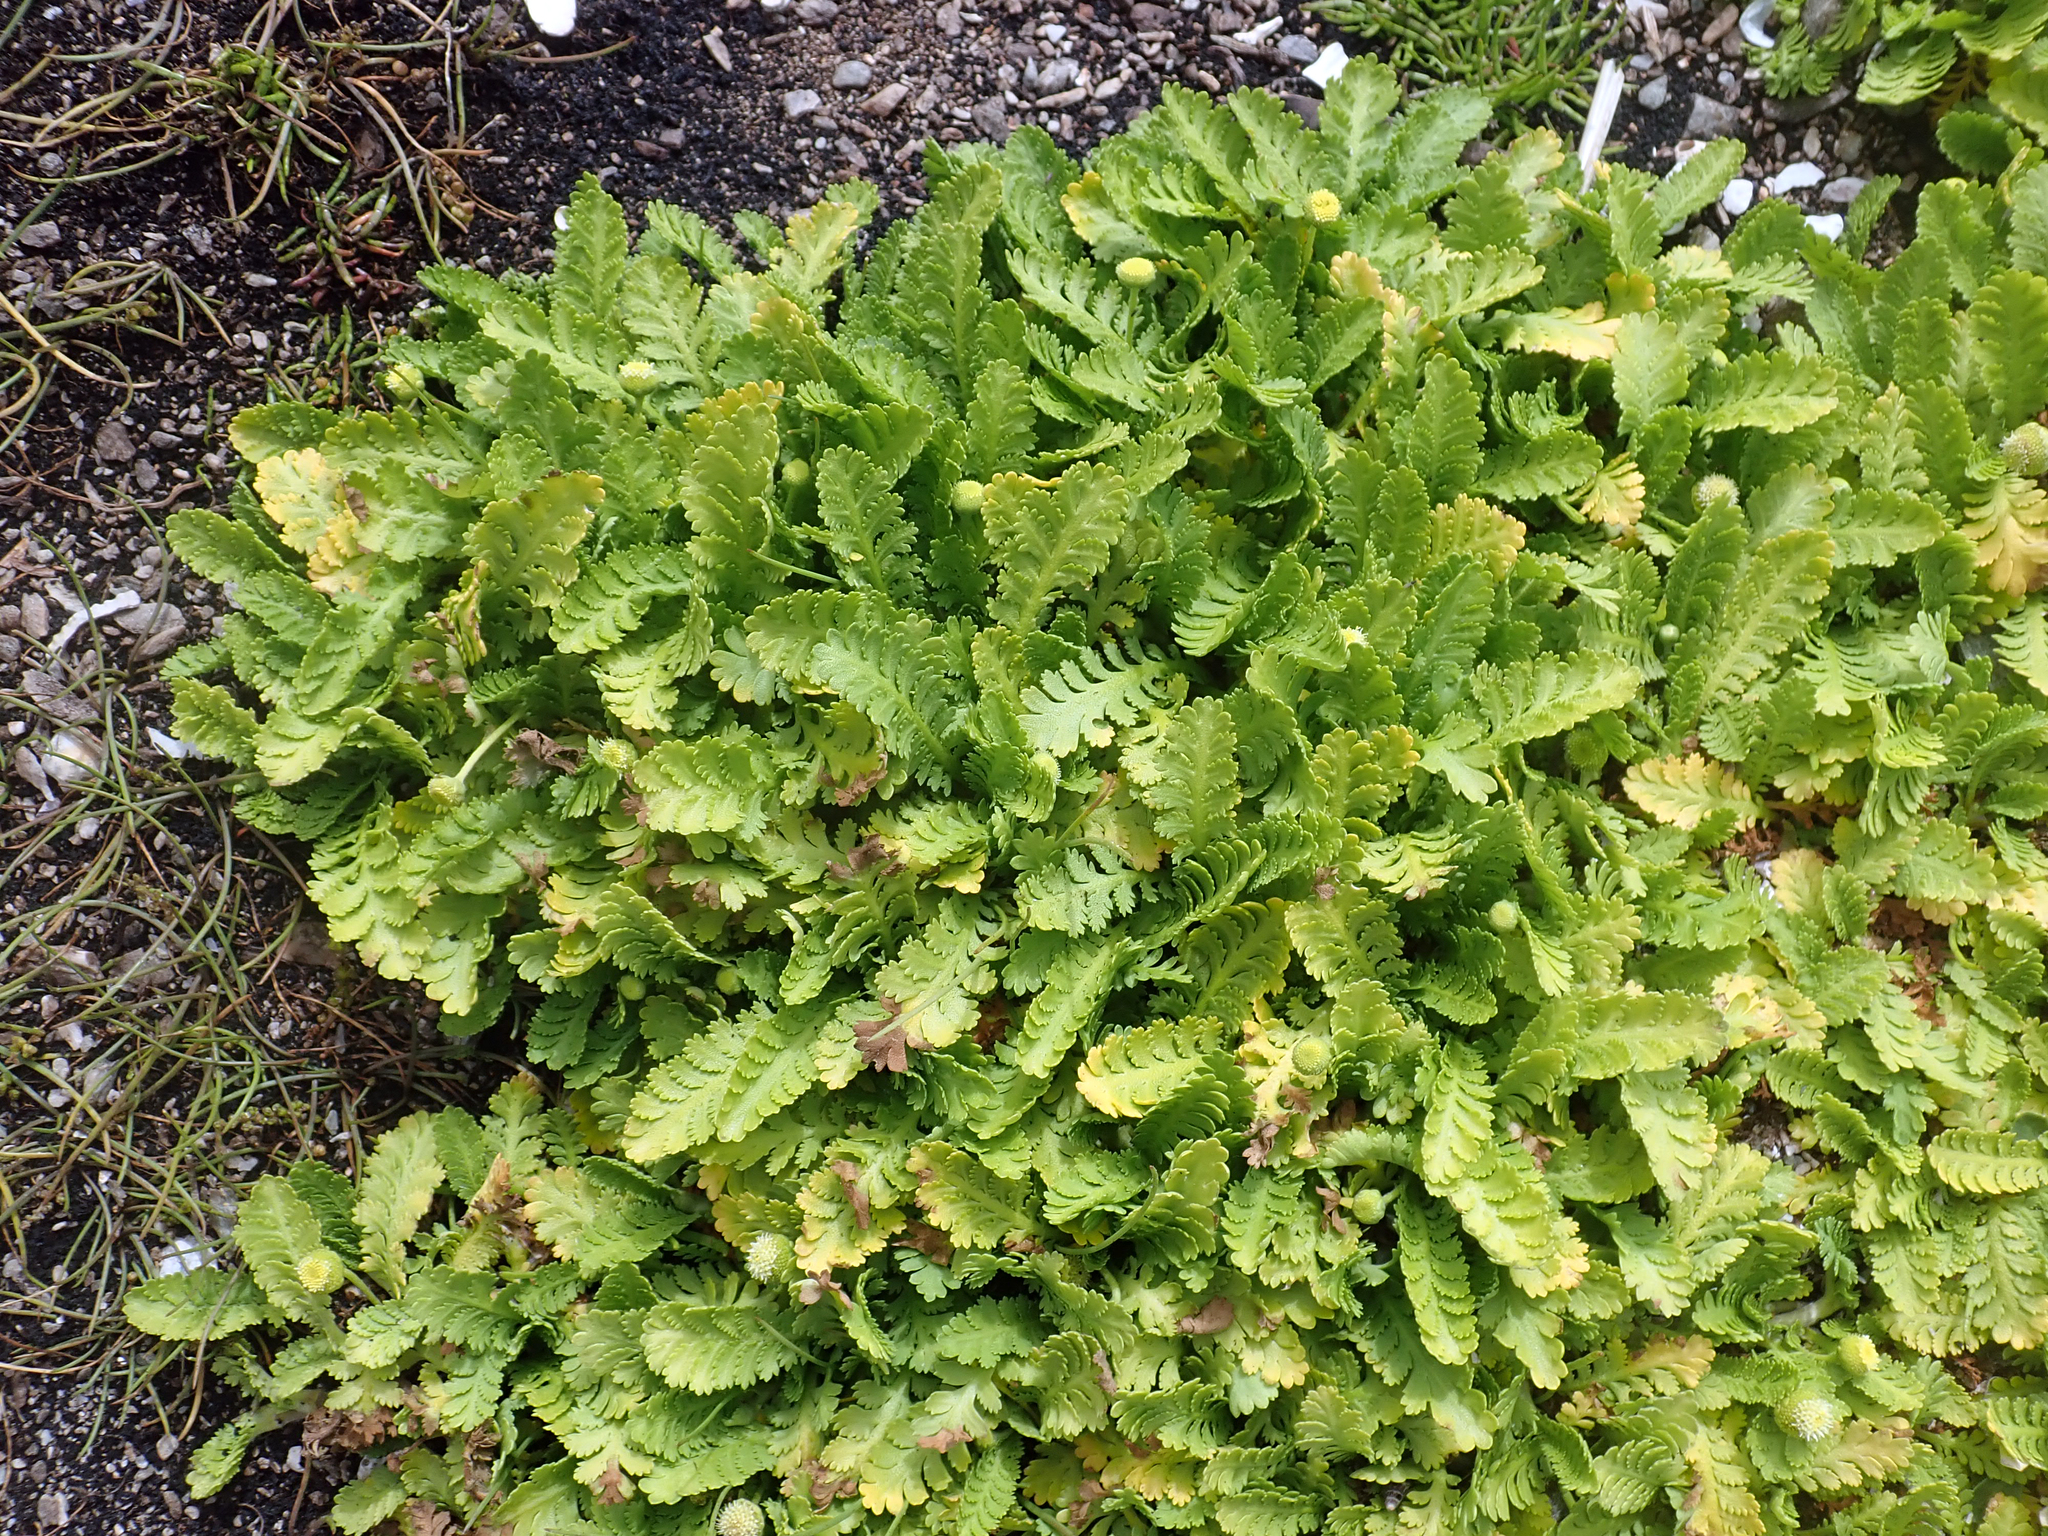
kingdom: Plantae
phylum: Tracheophyta
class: Magnoliopsida
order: Asterales
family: Asteraceae
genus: Leptinella
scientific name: Leptinella potentillina
